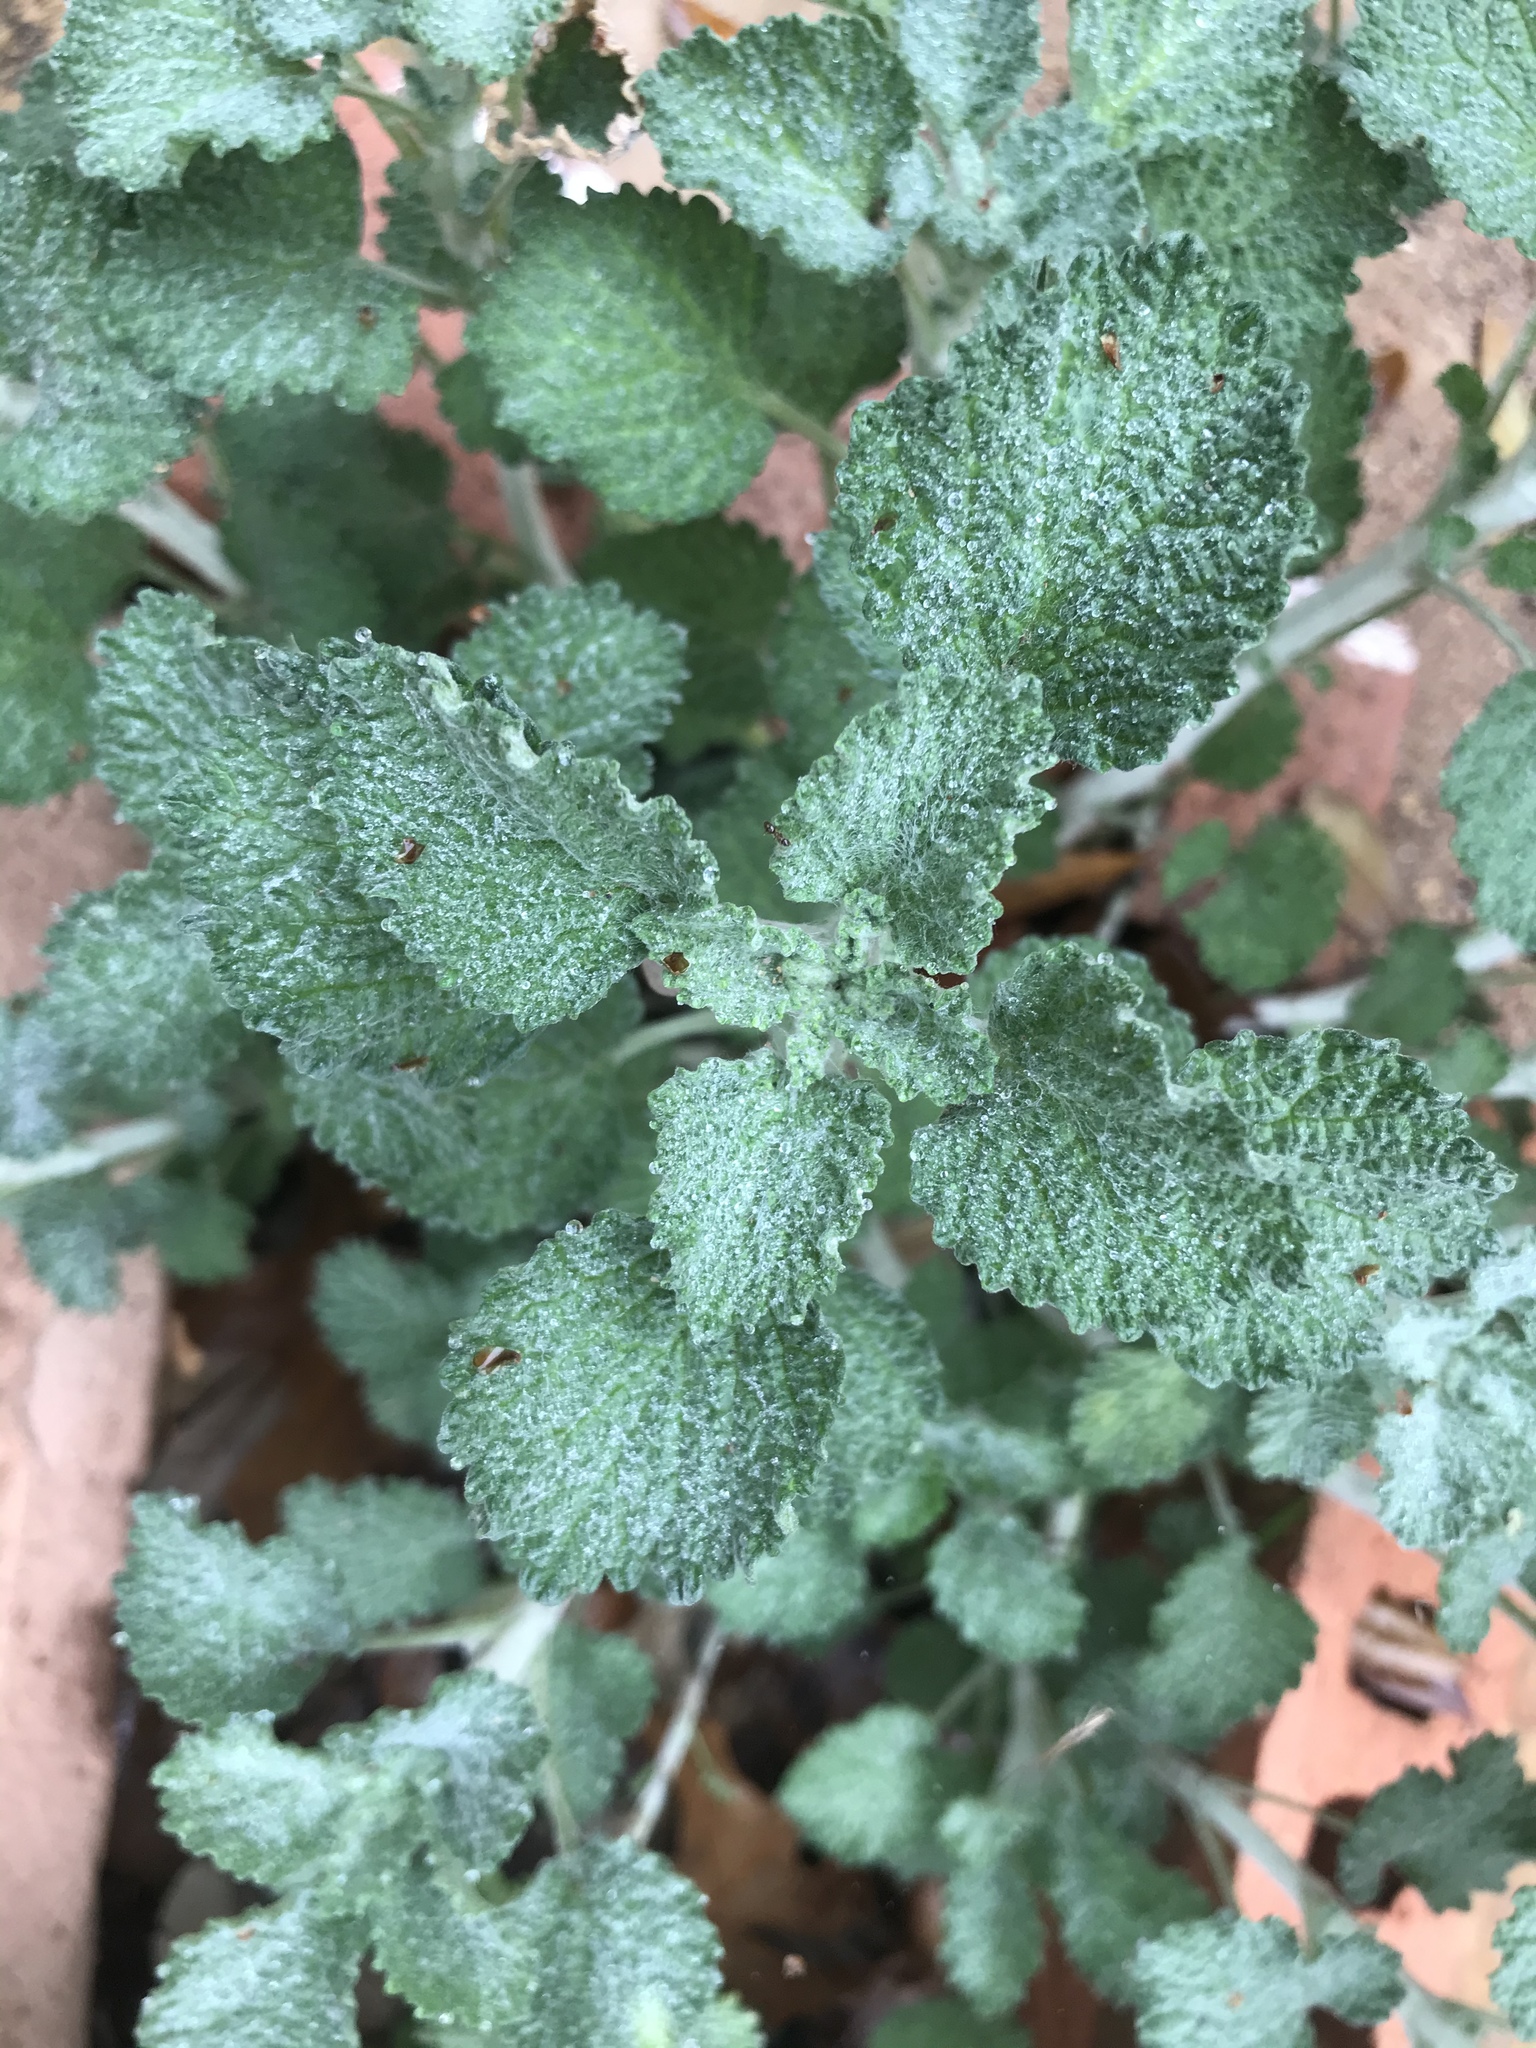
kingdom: Plantae
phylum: Tracheophyta
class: Magnoliopsida
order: Lamiales
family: Lamiaceae
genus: Marrubium
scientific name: Marrubium vulgare
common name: Horehound
